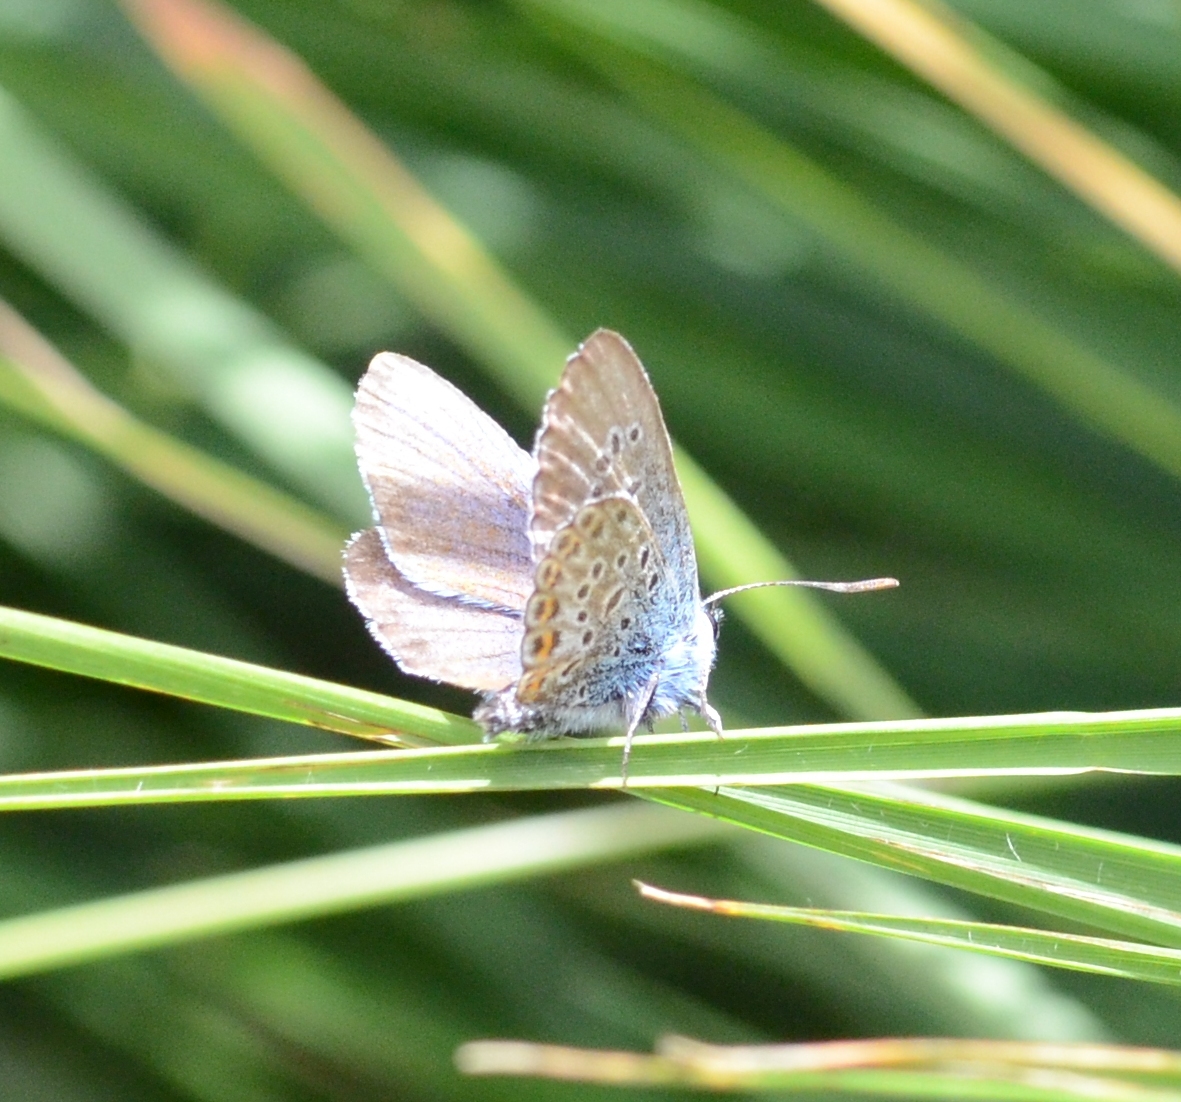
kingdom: Animalia
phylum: Arthropoda
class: Insecta
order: Lepidoptera
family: Lycaenidae
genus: Plebejus
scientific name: Plebejus argus
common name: Silver-studded blue
